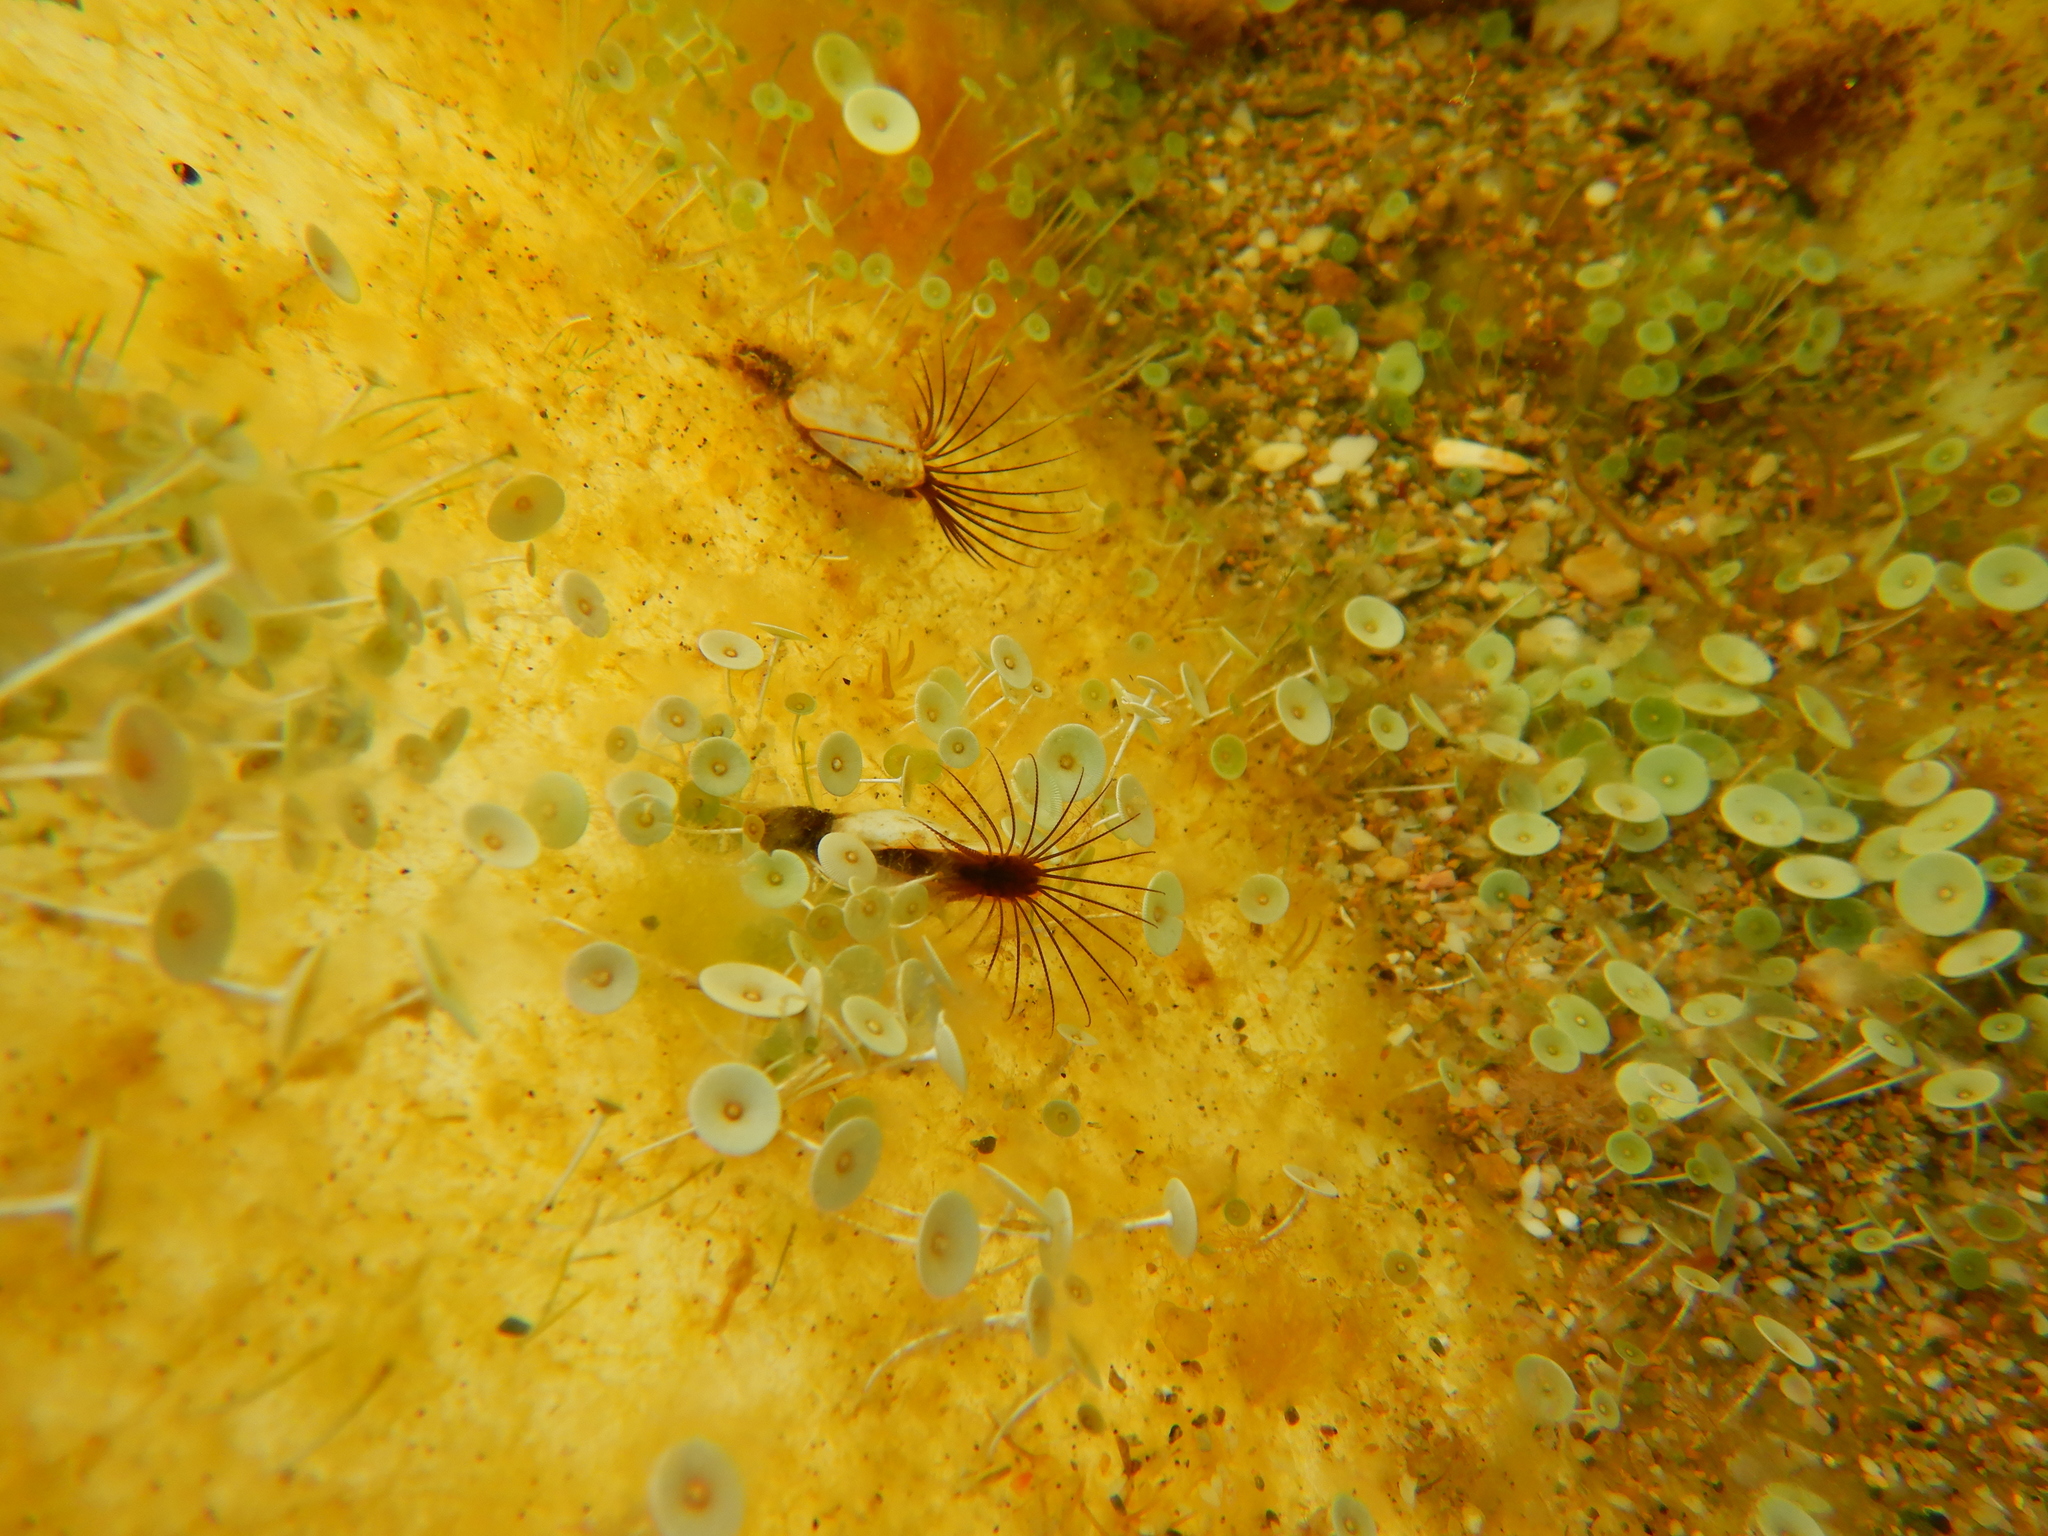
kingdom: Animalia
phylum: Arthropoda
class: Maxillopoda
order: Pedunculata
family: Lepadidae
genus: Lepas
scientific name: Lepas anatifera
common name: Common goose barnacle
